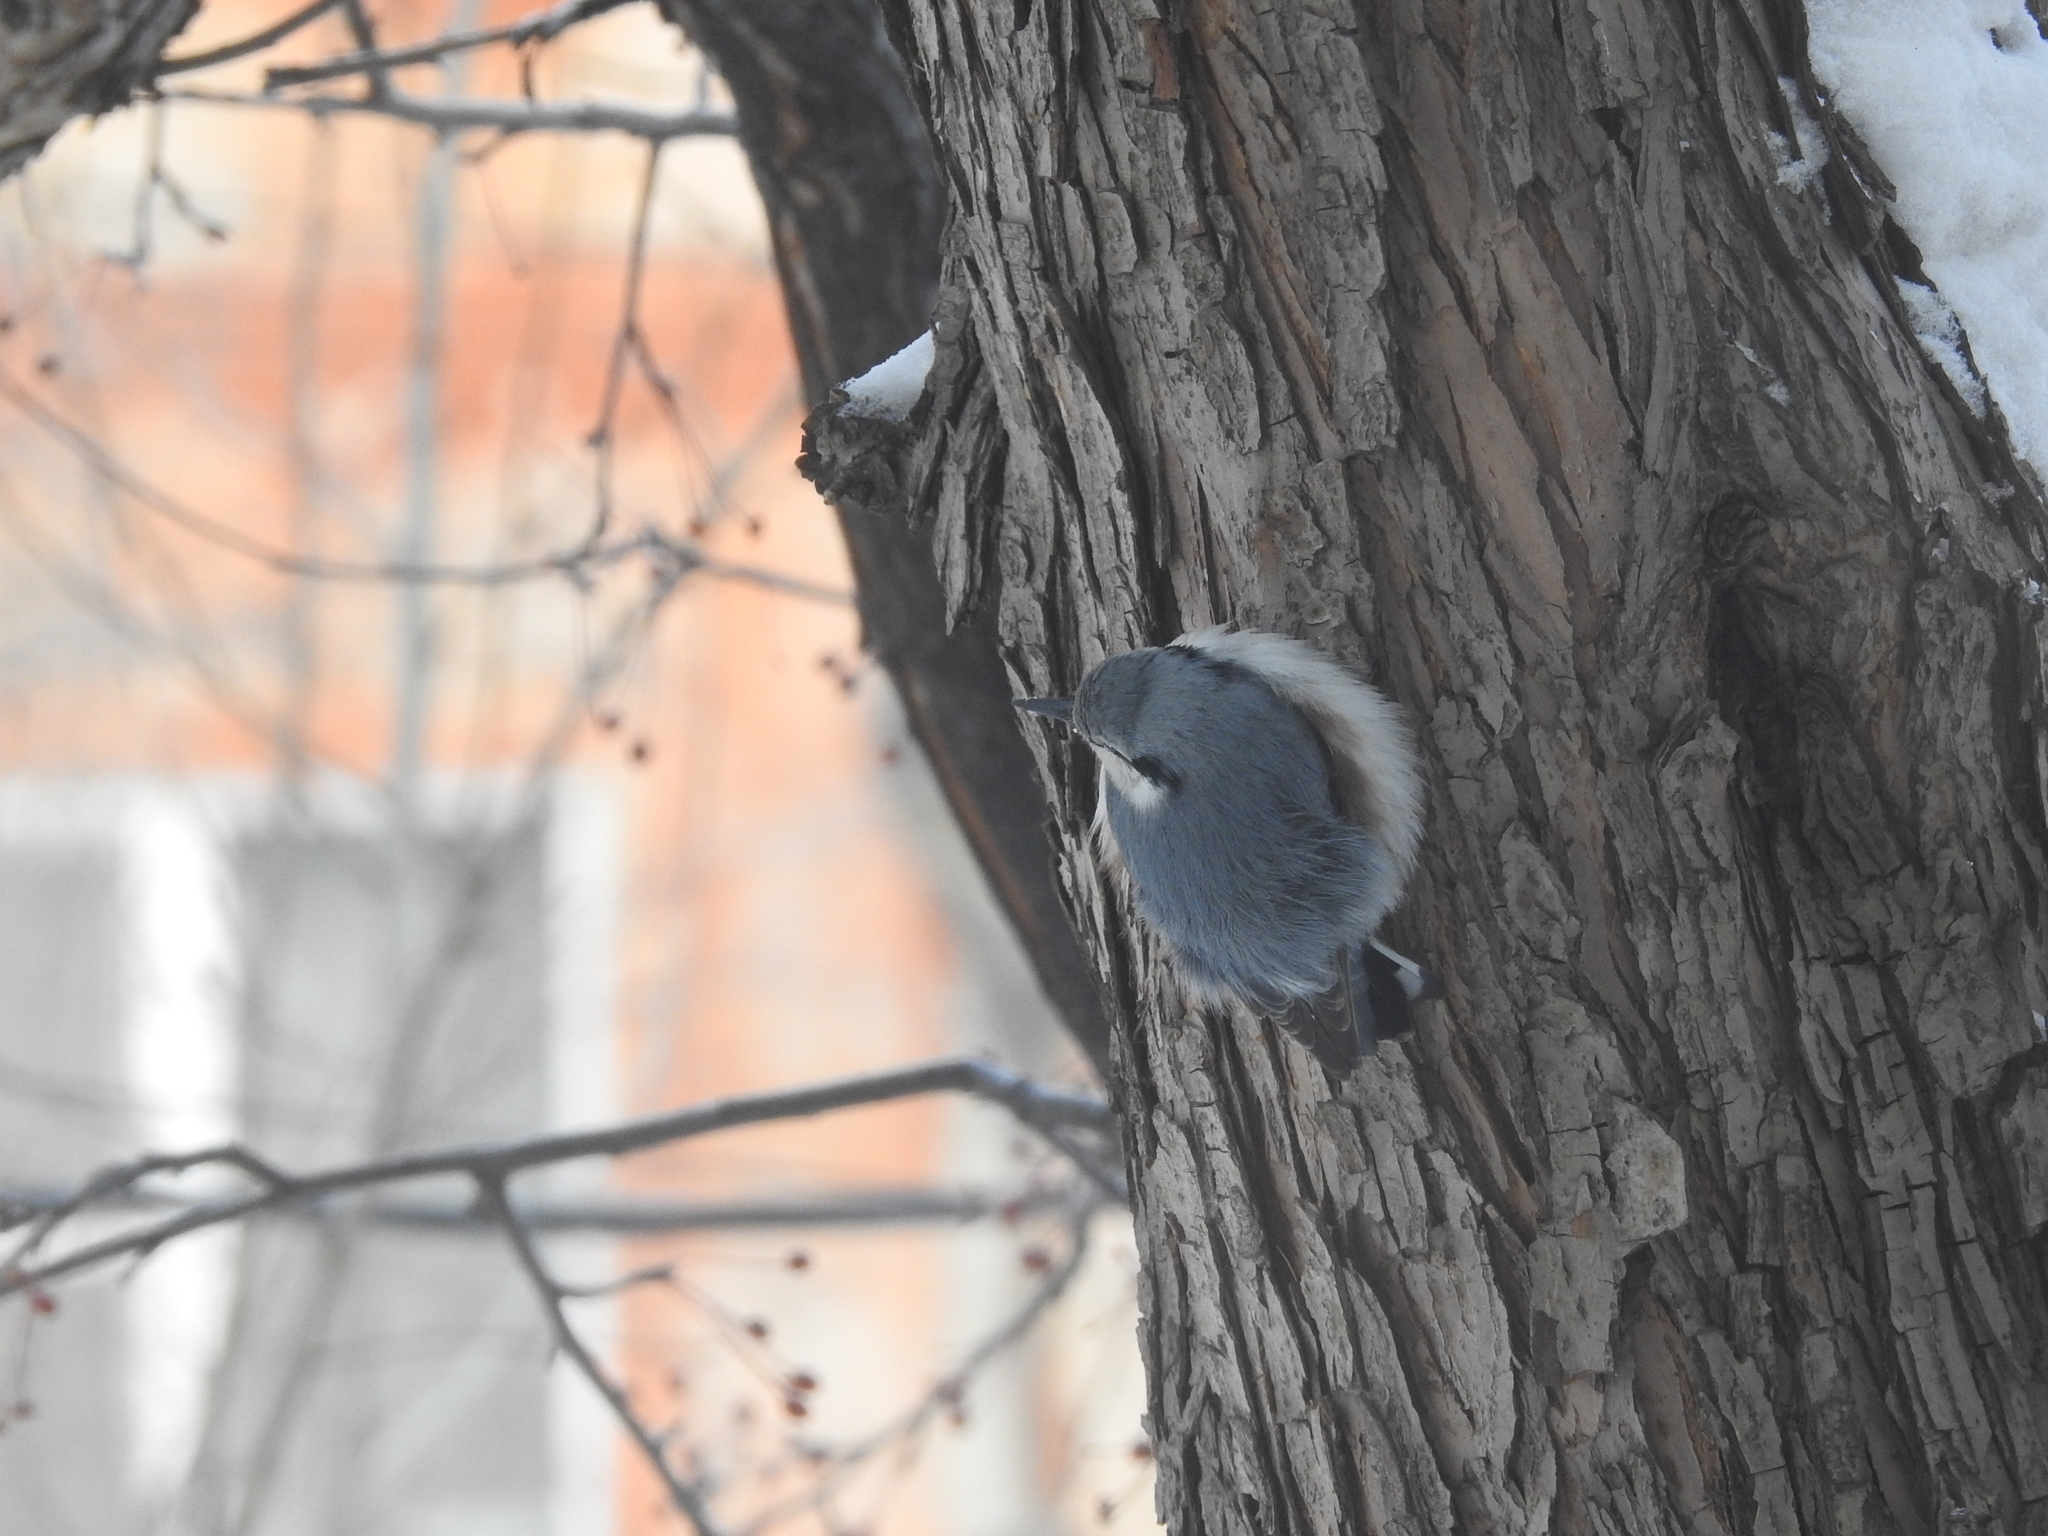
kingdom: Animalia
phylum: Chordata
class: Aves
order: Passeriformes
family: Sittidae
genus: Sitta
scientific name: Sitta europaea
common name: Eurasian nuthatch
